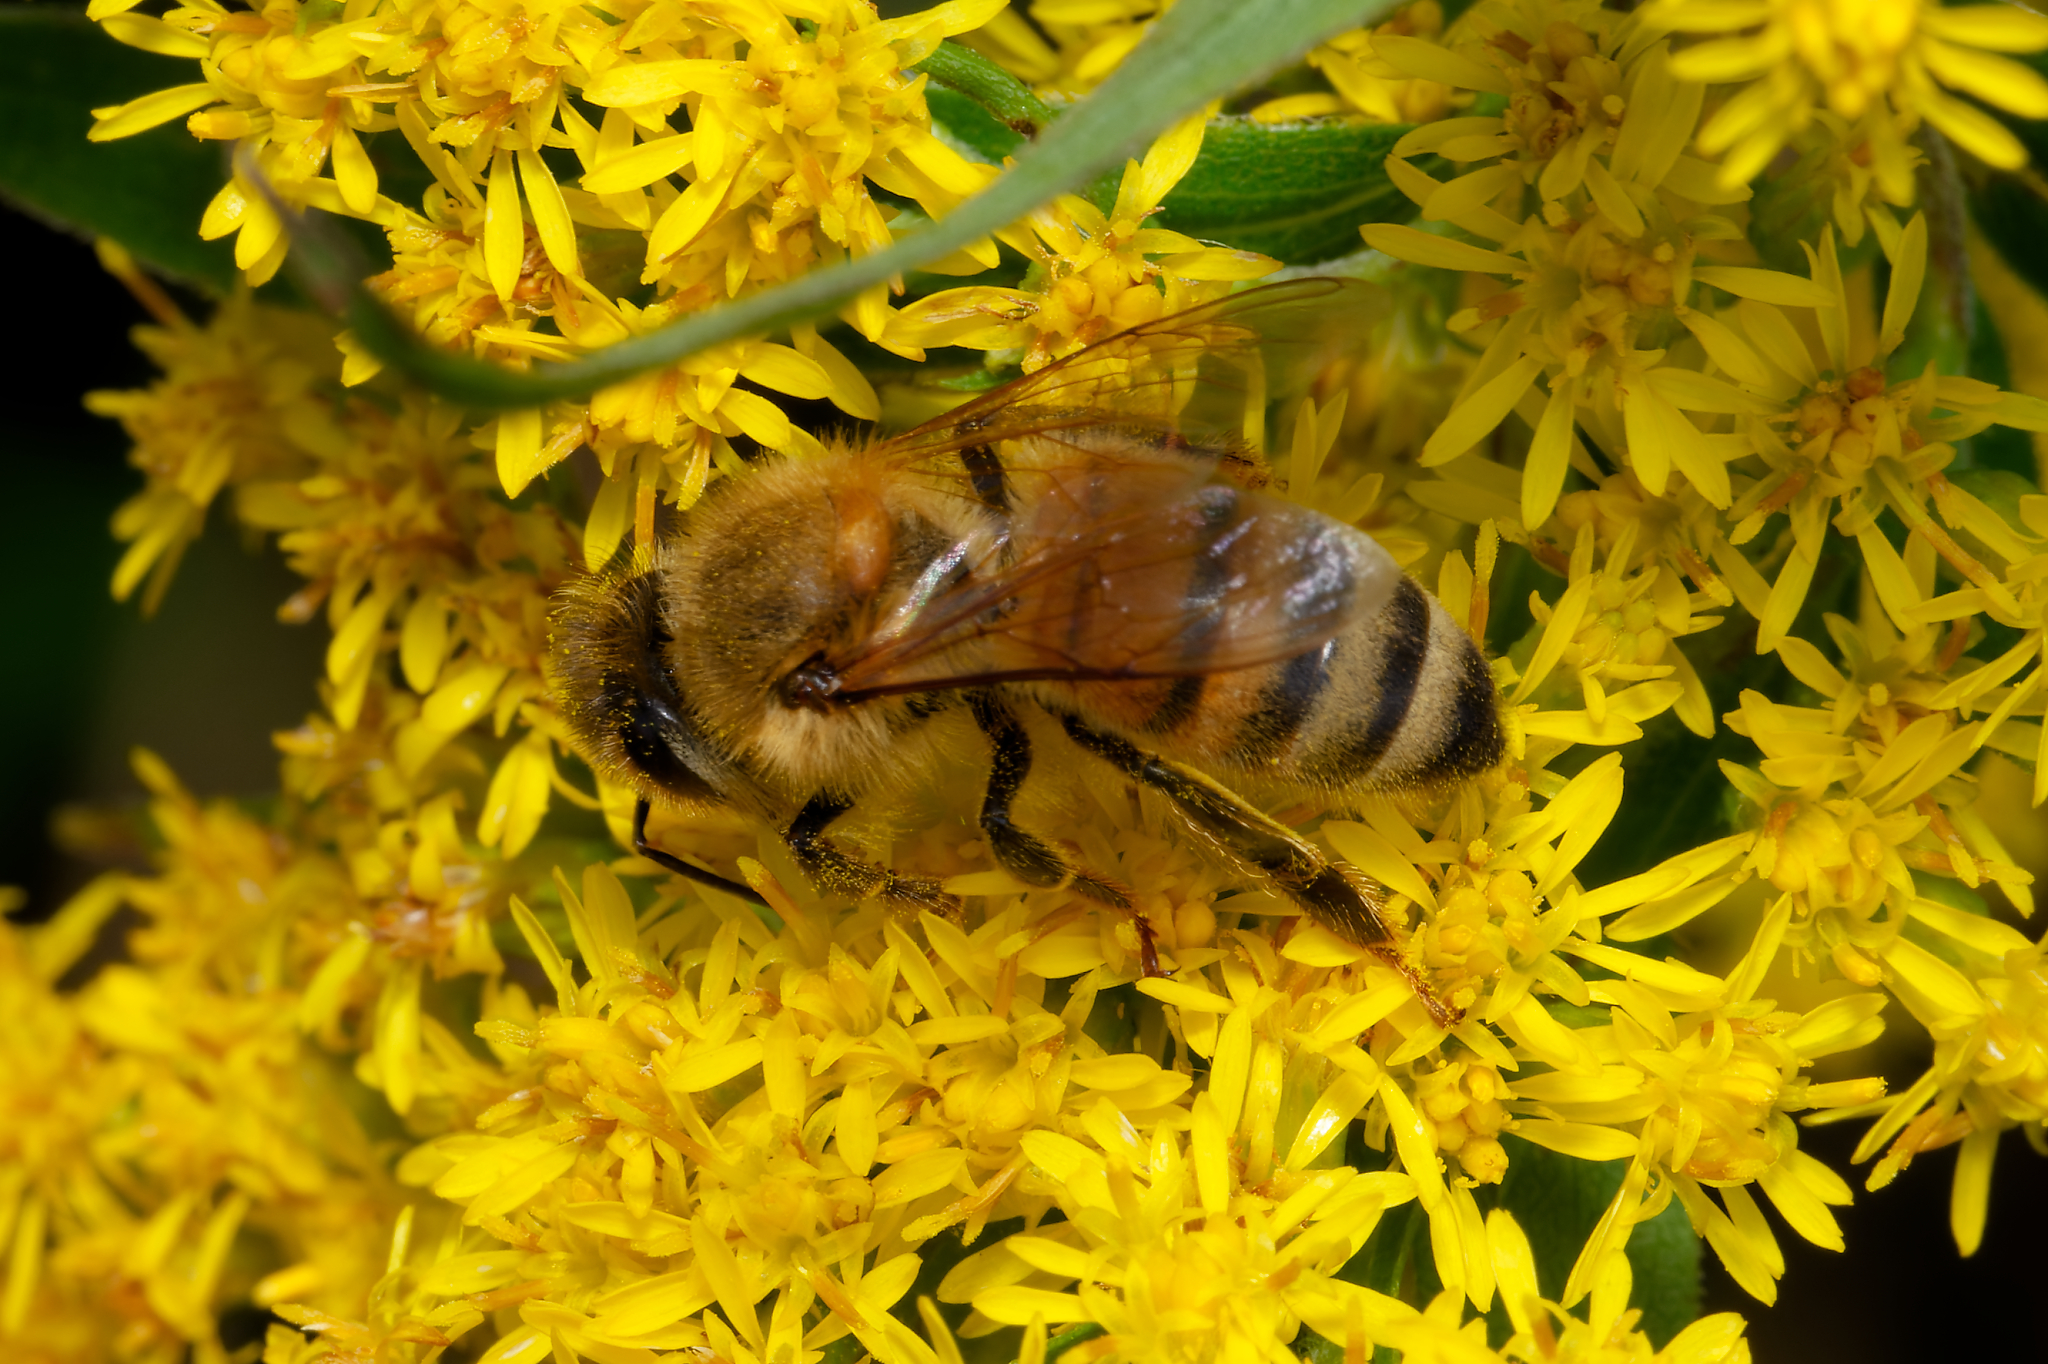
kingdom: Animalia
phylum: Arthropoda
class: Insecta
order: Hymenoptera
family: Apidae
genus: Apis
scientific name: Apis mellifera
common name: Honey bee
